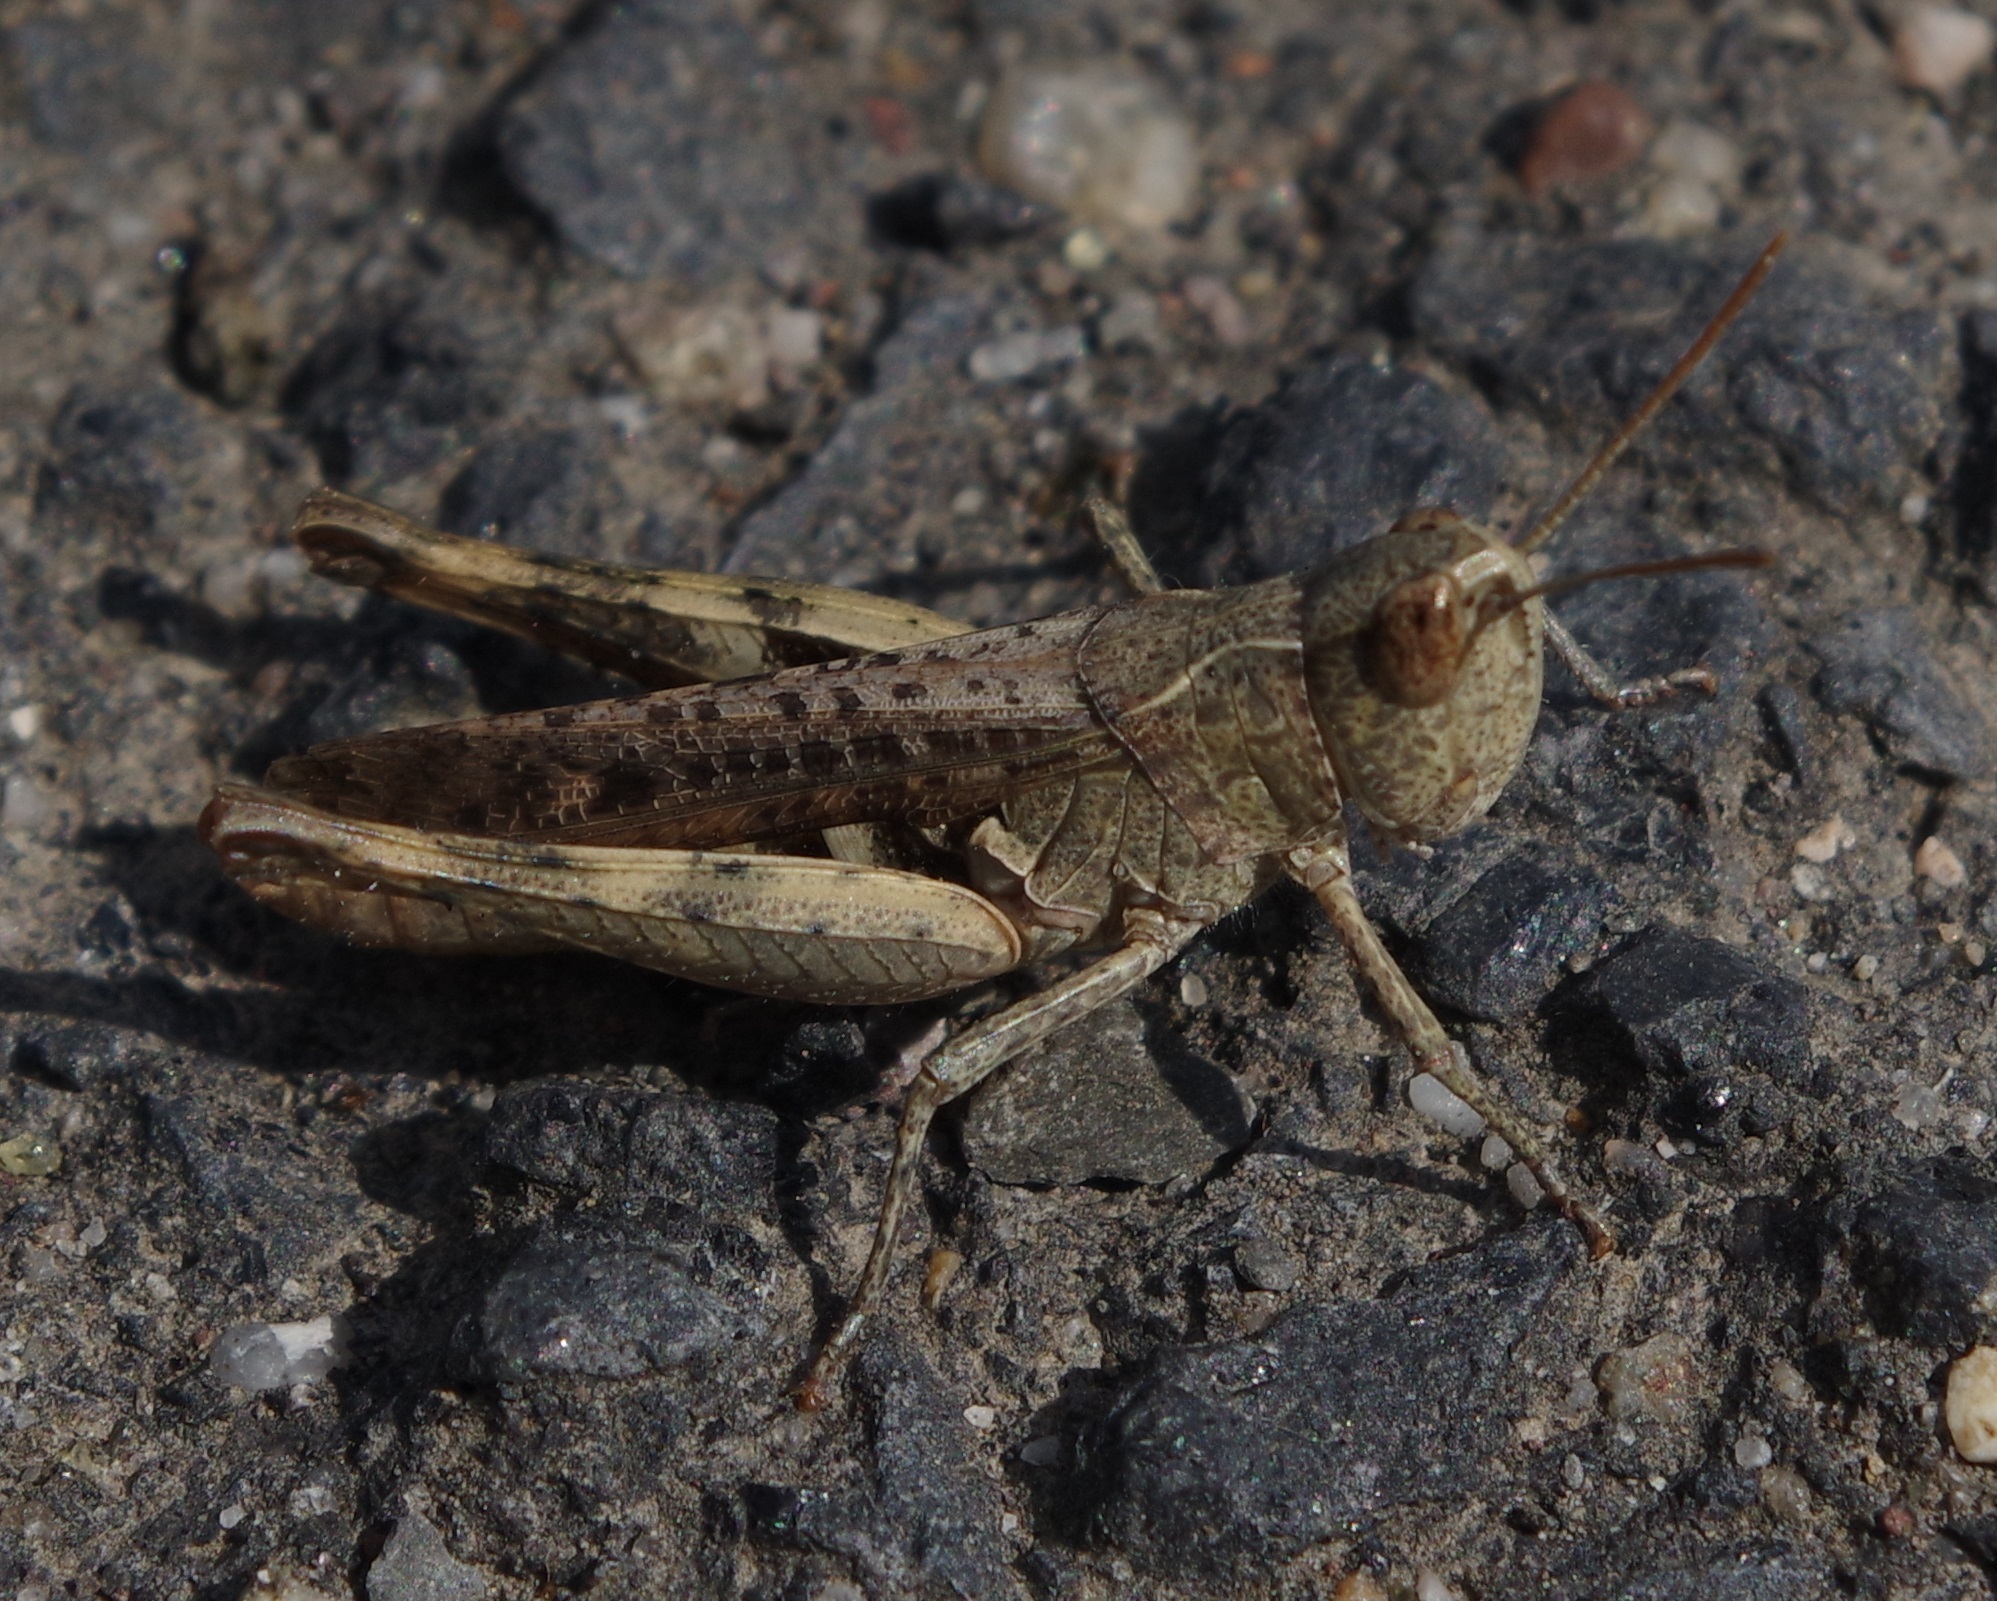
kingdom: Animalia
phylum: Arthropoda
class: Insecta
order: Orthoptera
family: Acrididae
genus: Chorthippus
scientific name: Chorthippus vagans
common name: Heath grasshopper
